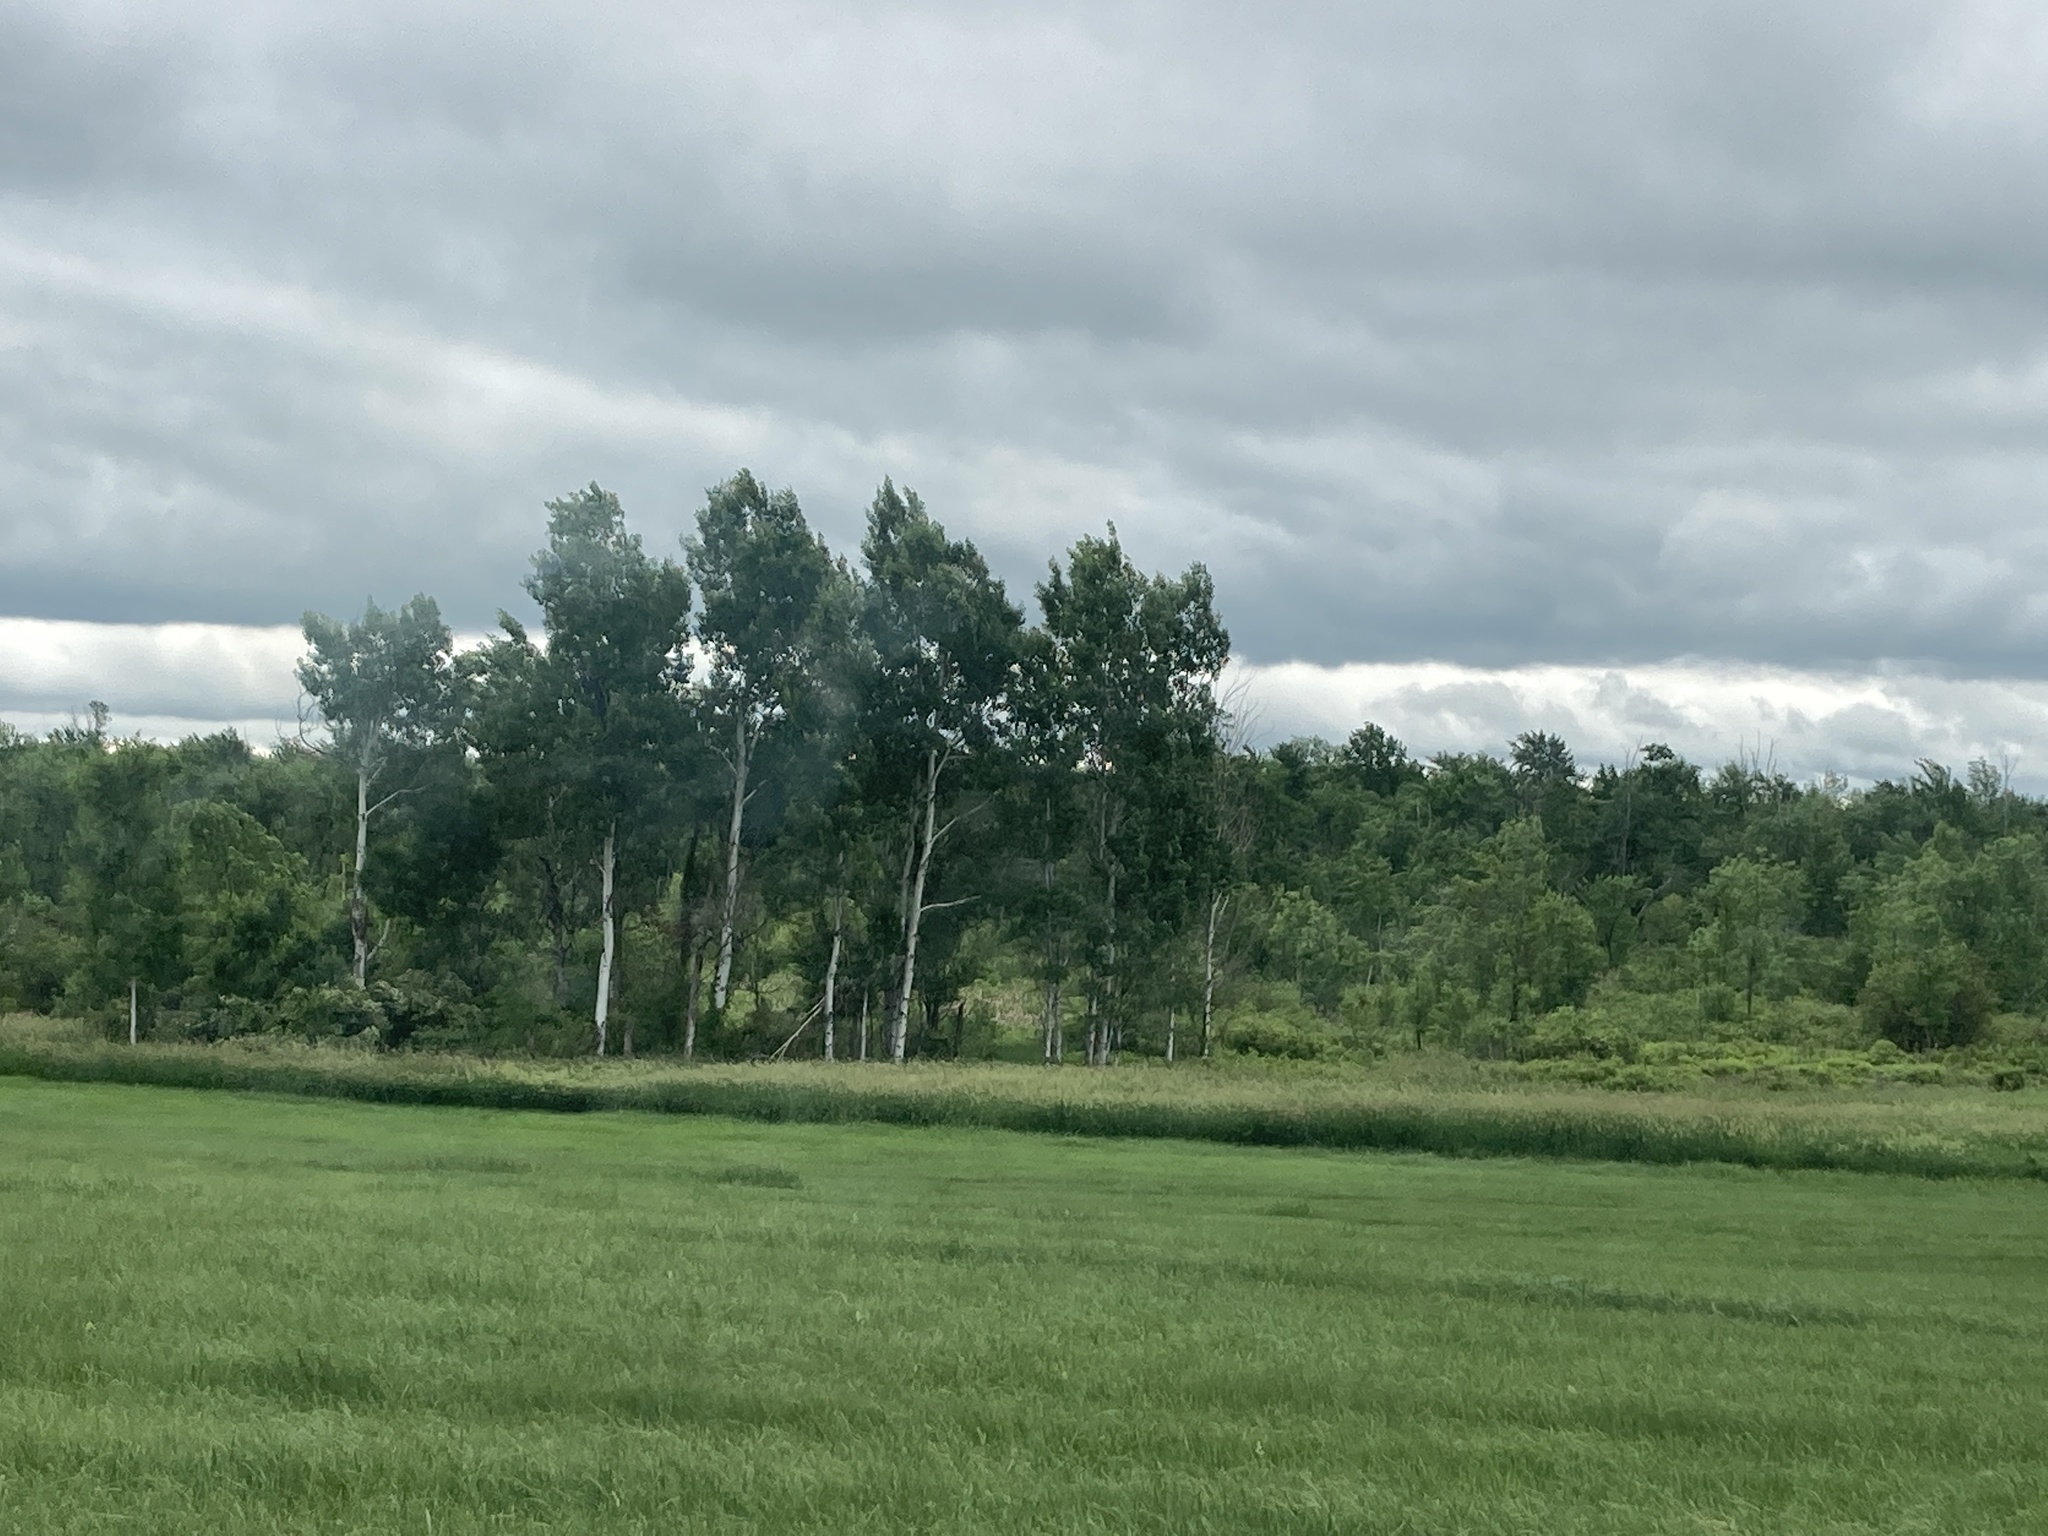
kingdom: Plantae
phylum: Tracheophyta
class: Magnoliopsida
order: Malpighiales
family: Salicaceae
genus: Populus
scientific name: Populus tremuloides
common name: Quaking aspen
